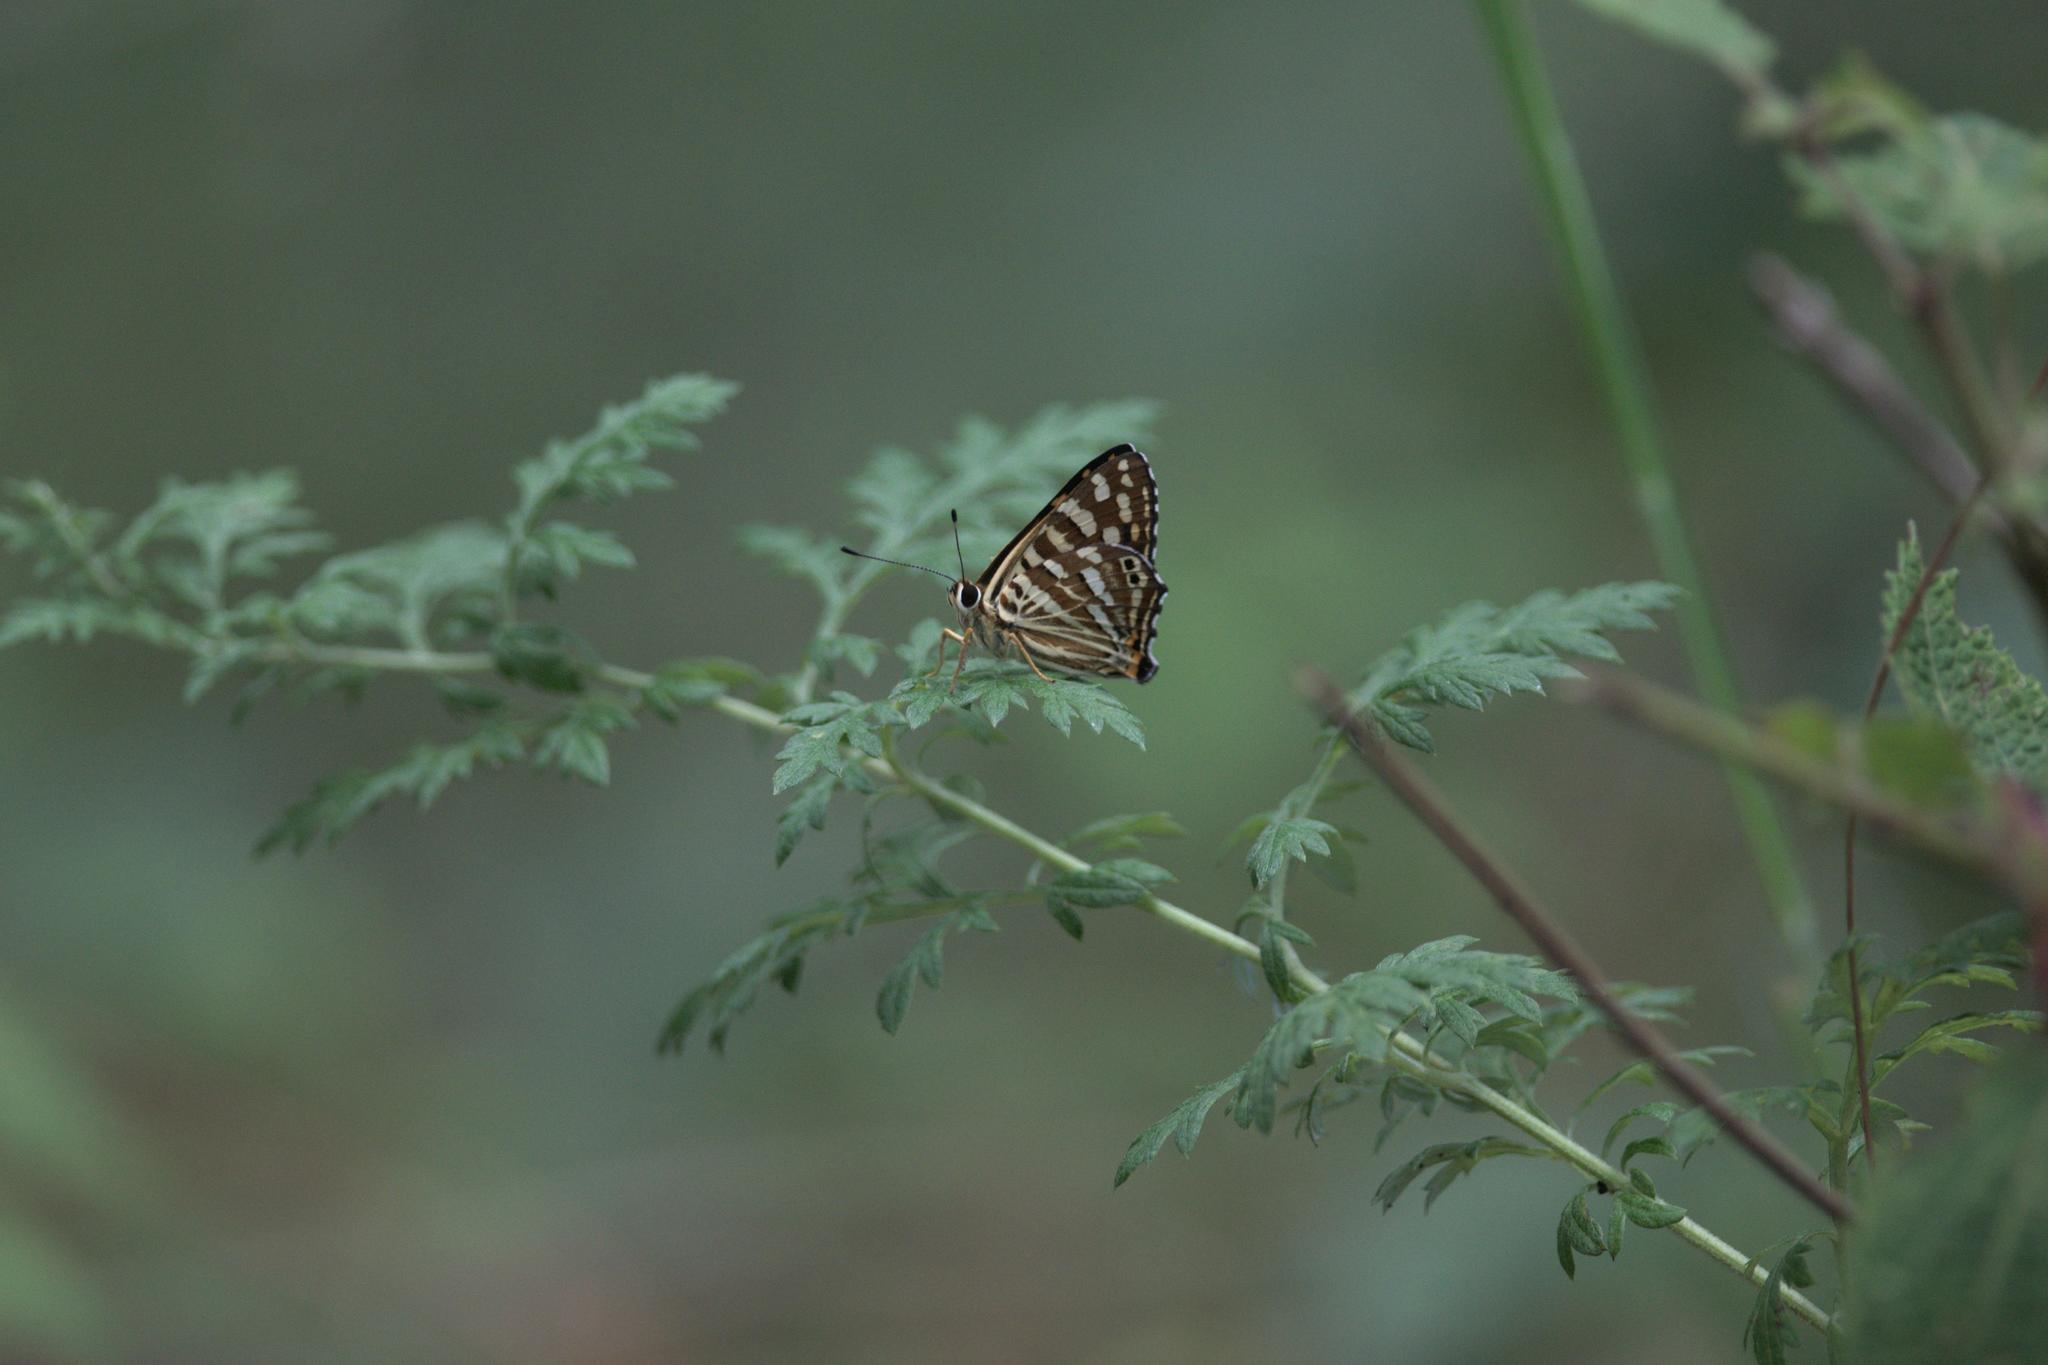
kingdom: Animalia
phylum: Arthropoda
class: Insecta
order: Lepidoptera
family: Lycaenidae
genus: Dodona
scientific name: Dodona durga
